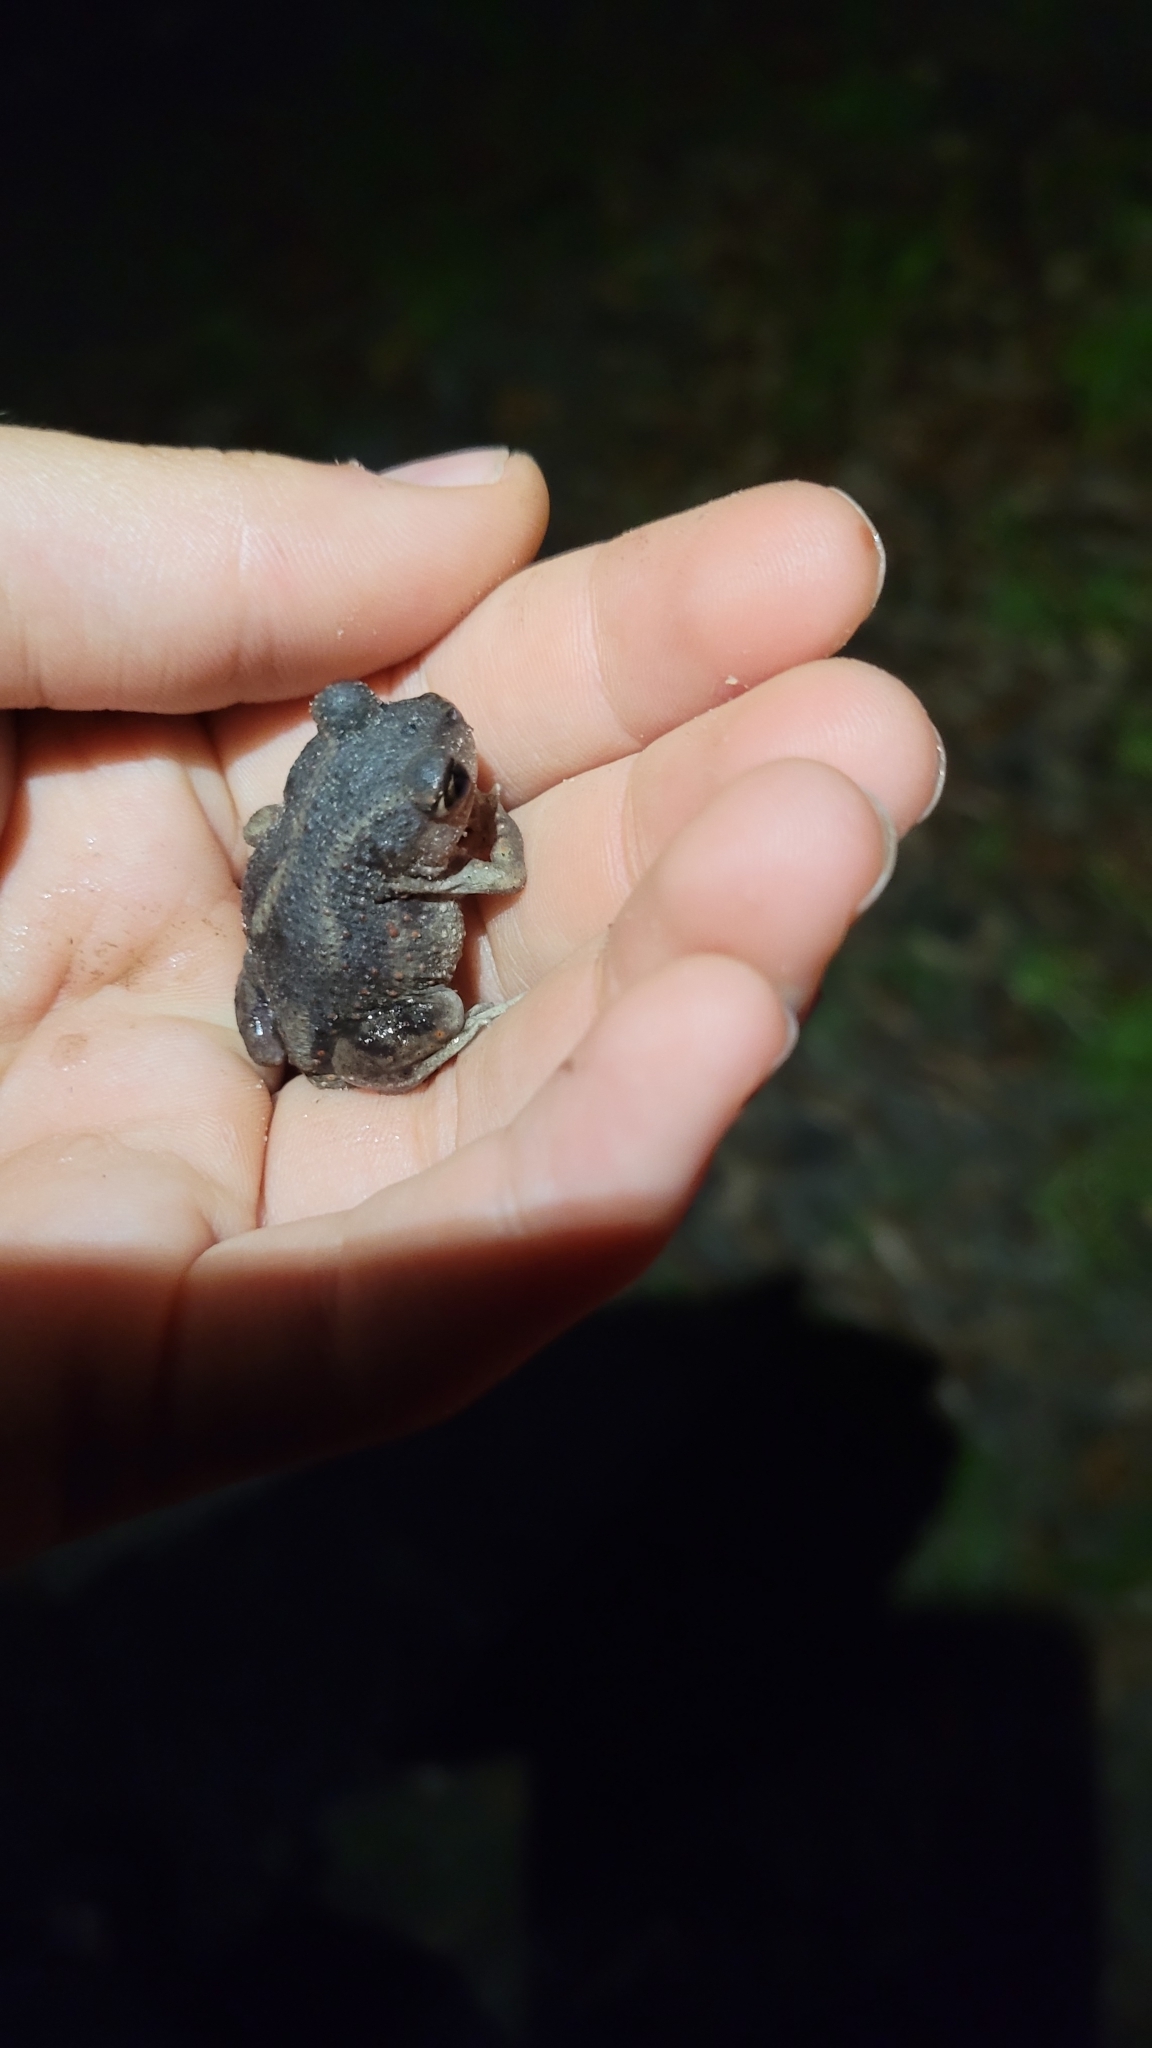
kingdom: Animalia
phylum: Chordata
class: Amphibia
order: Anura
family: Scaphiopodidae
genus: Scaphiopus
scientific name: Scaphiopus holbrookii
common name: Eastern spadefoot toad
